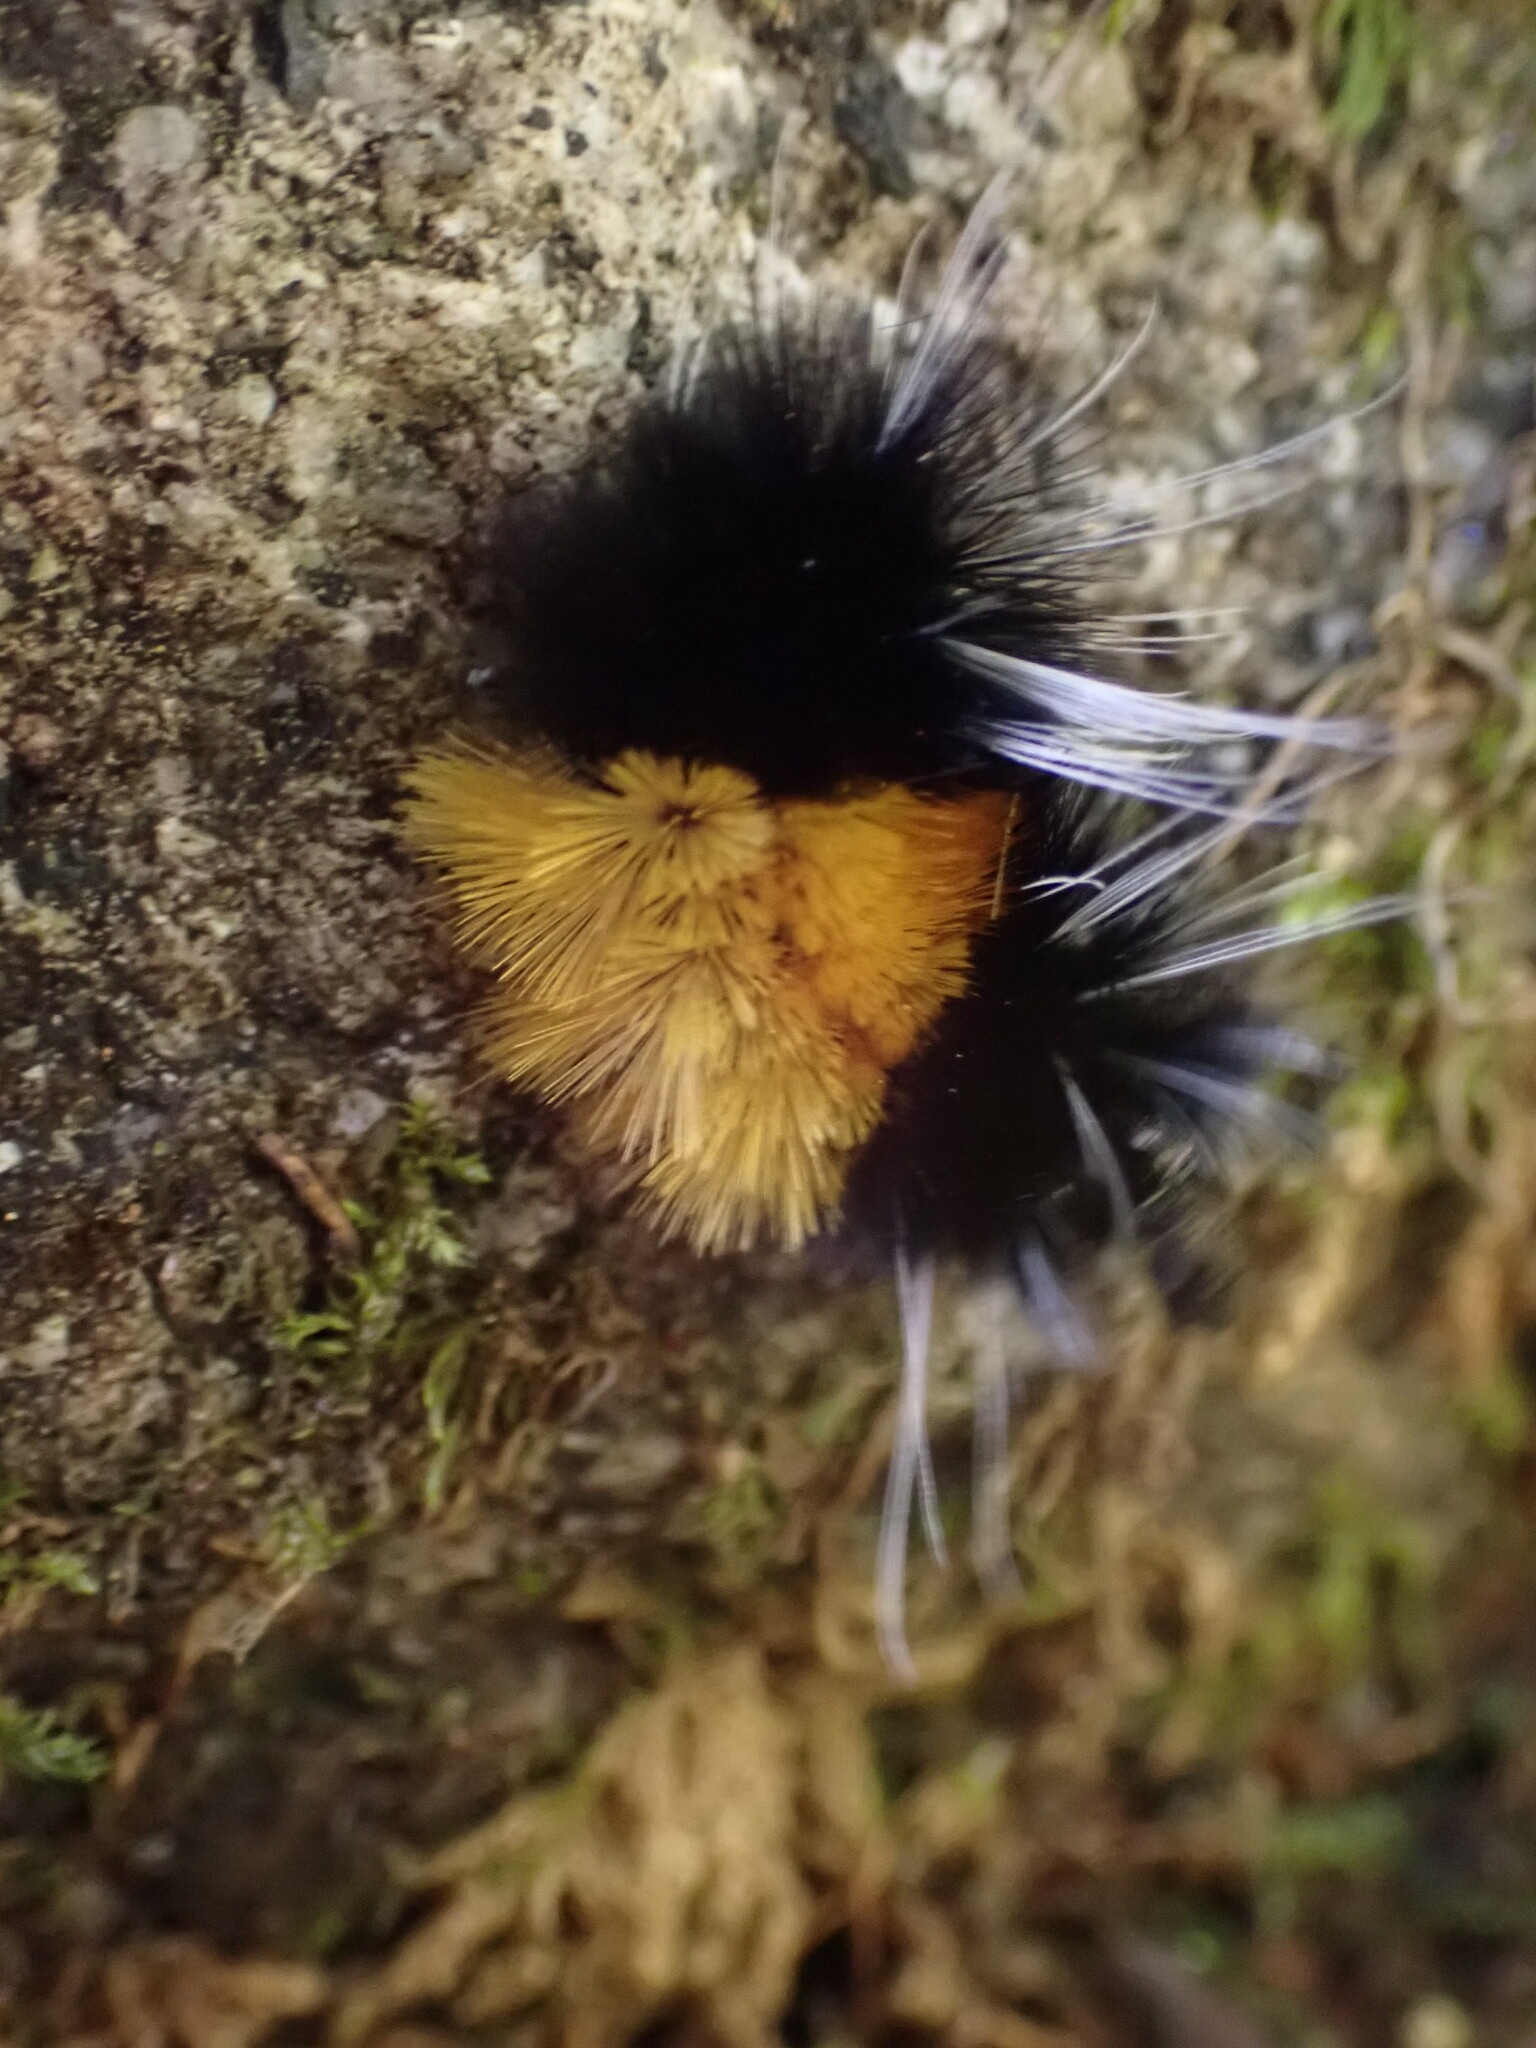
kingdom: Animalia
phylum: Arthropoda
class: Insecta
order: Lepidoptera
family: Erebidae
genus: Lophocampa
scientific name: Lophocampa maculata
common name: Spotted tussock moth
